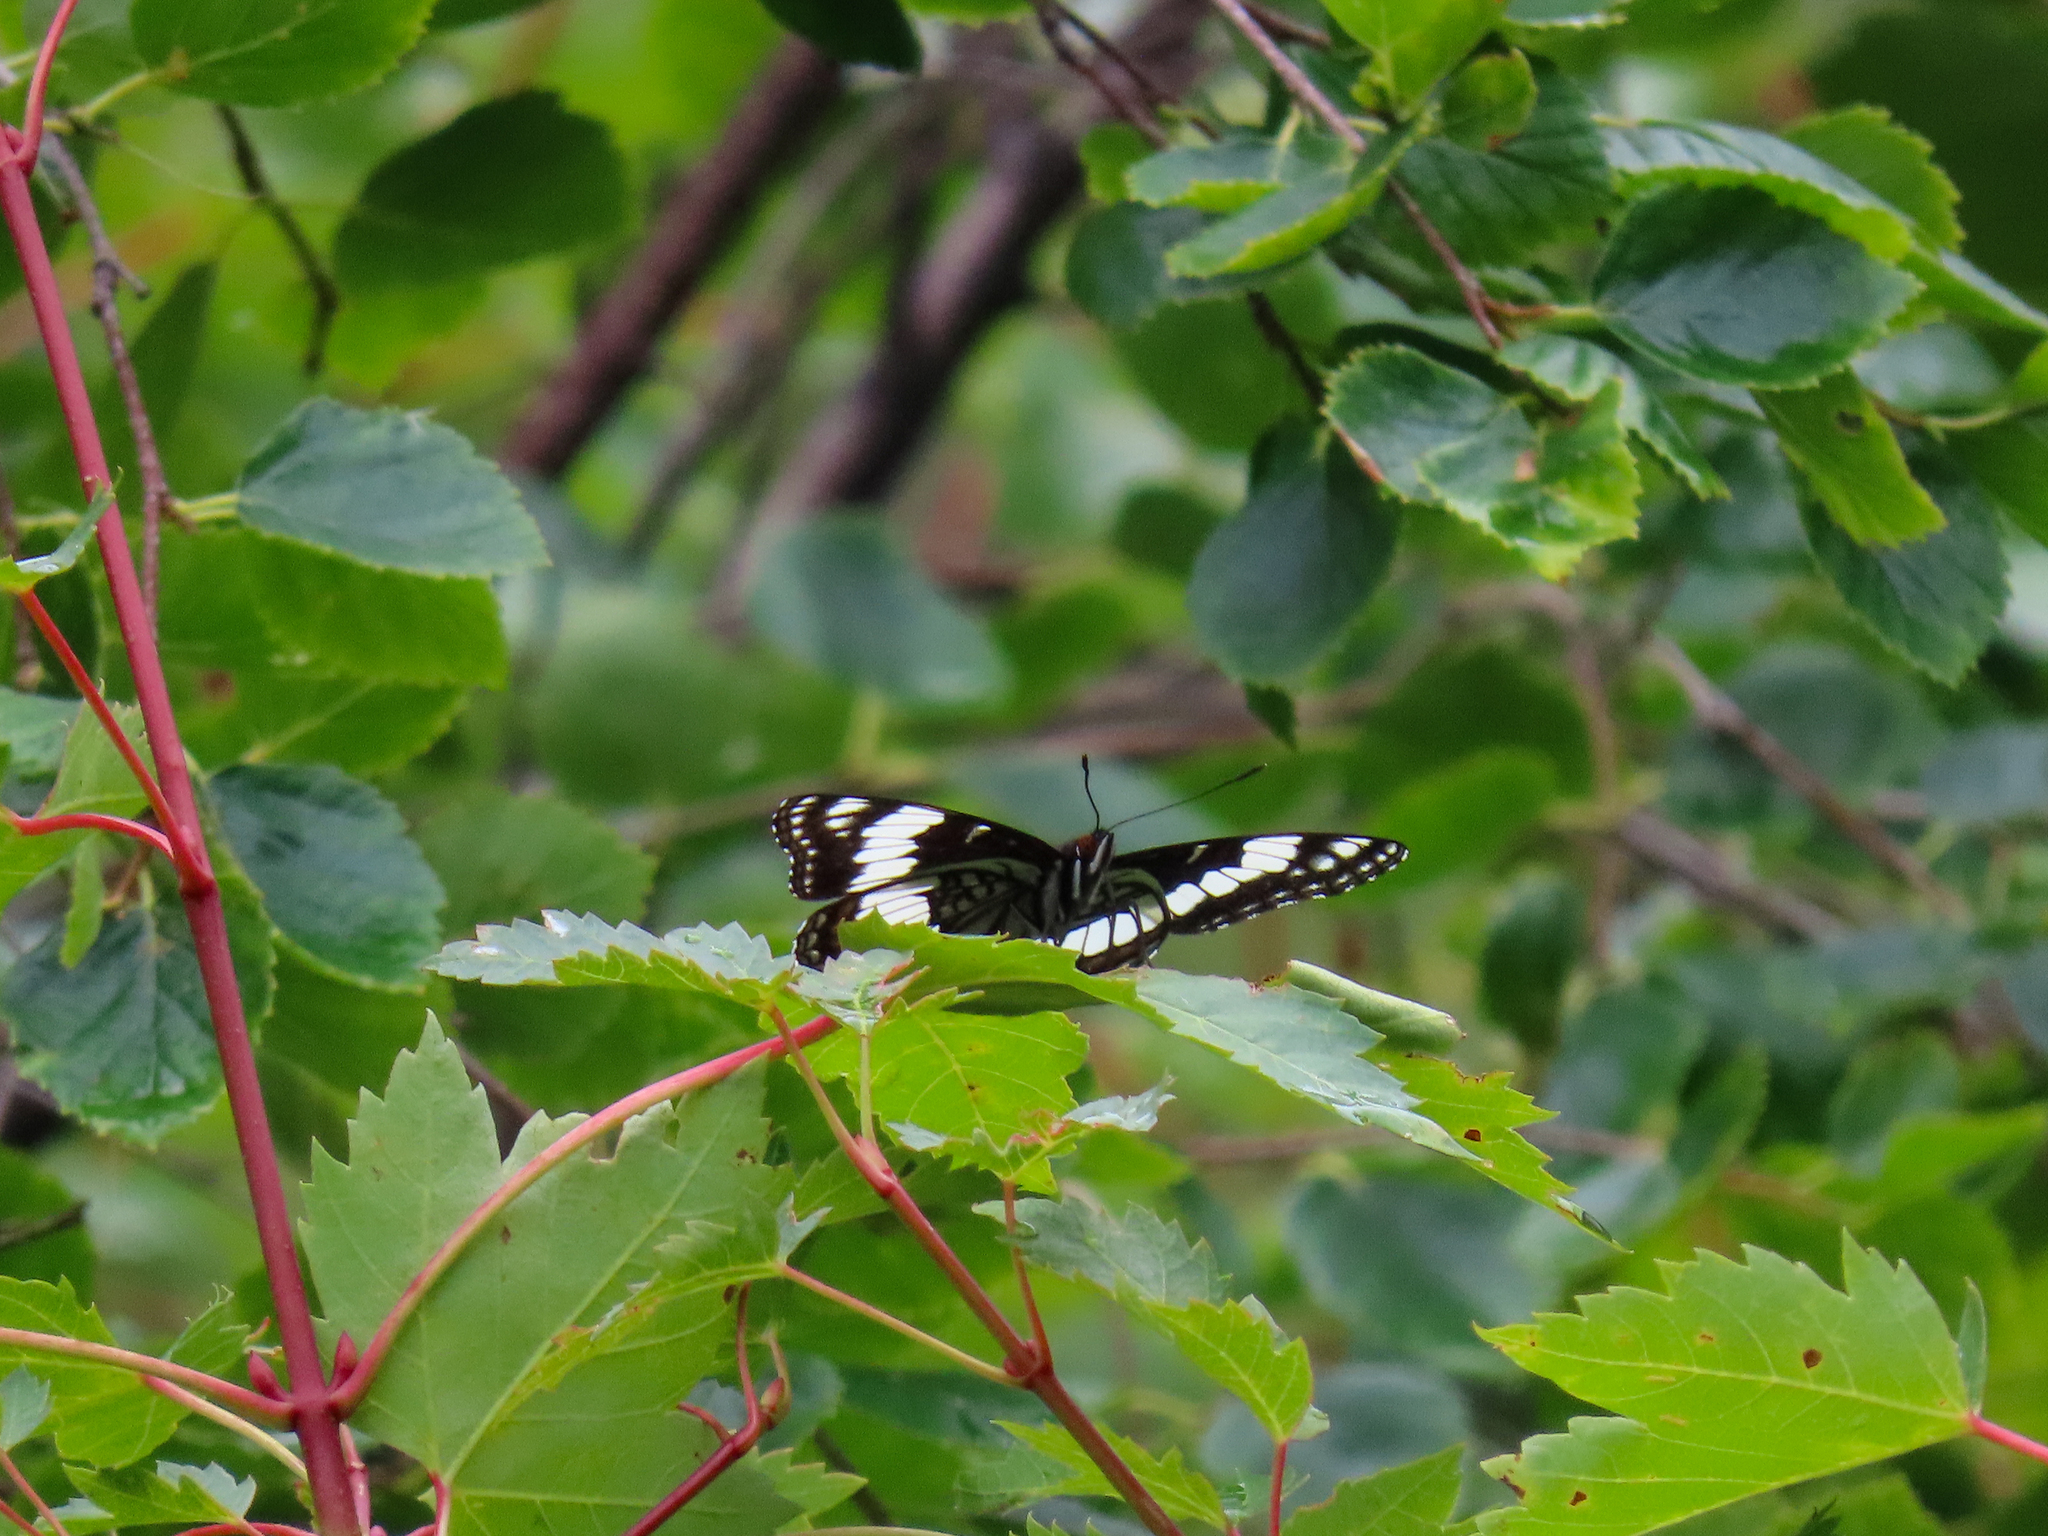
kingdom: Animalia
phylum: Arthropoda
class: Insecta
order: Lepidoptera
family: Nymphalidae
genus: Limenitis
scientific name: Limenitis weidemeyerii
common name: Weidemeyer's admiral
